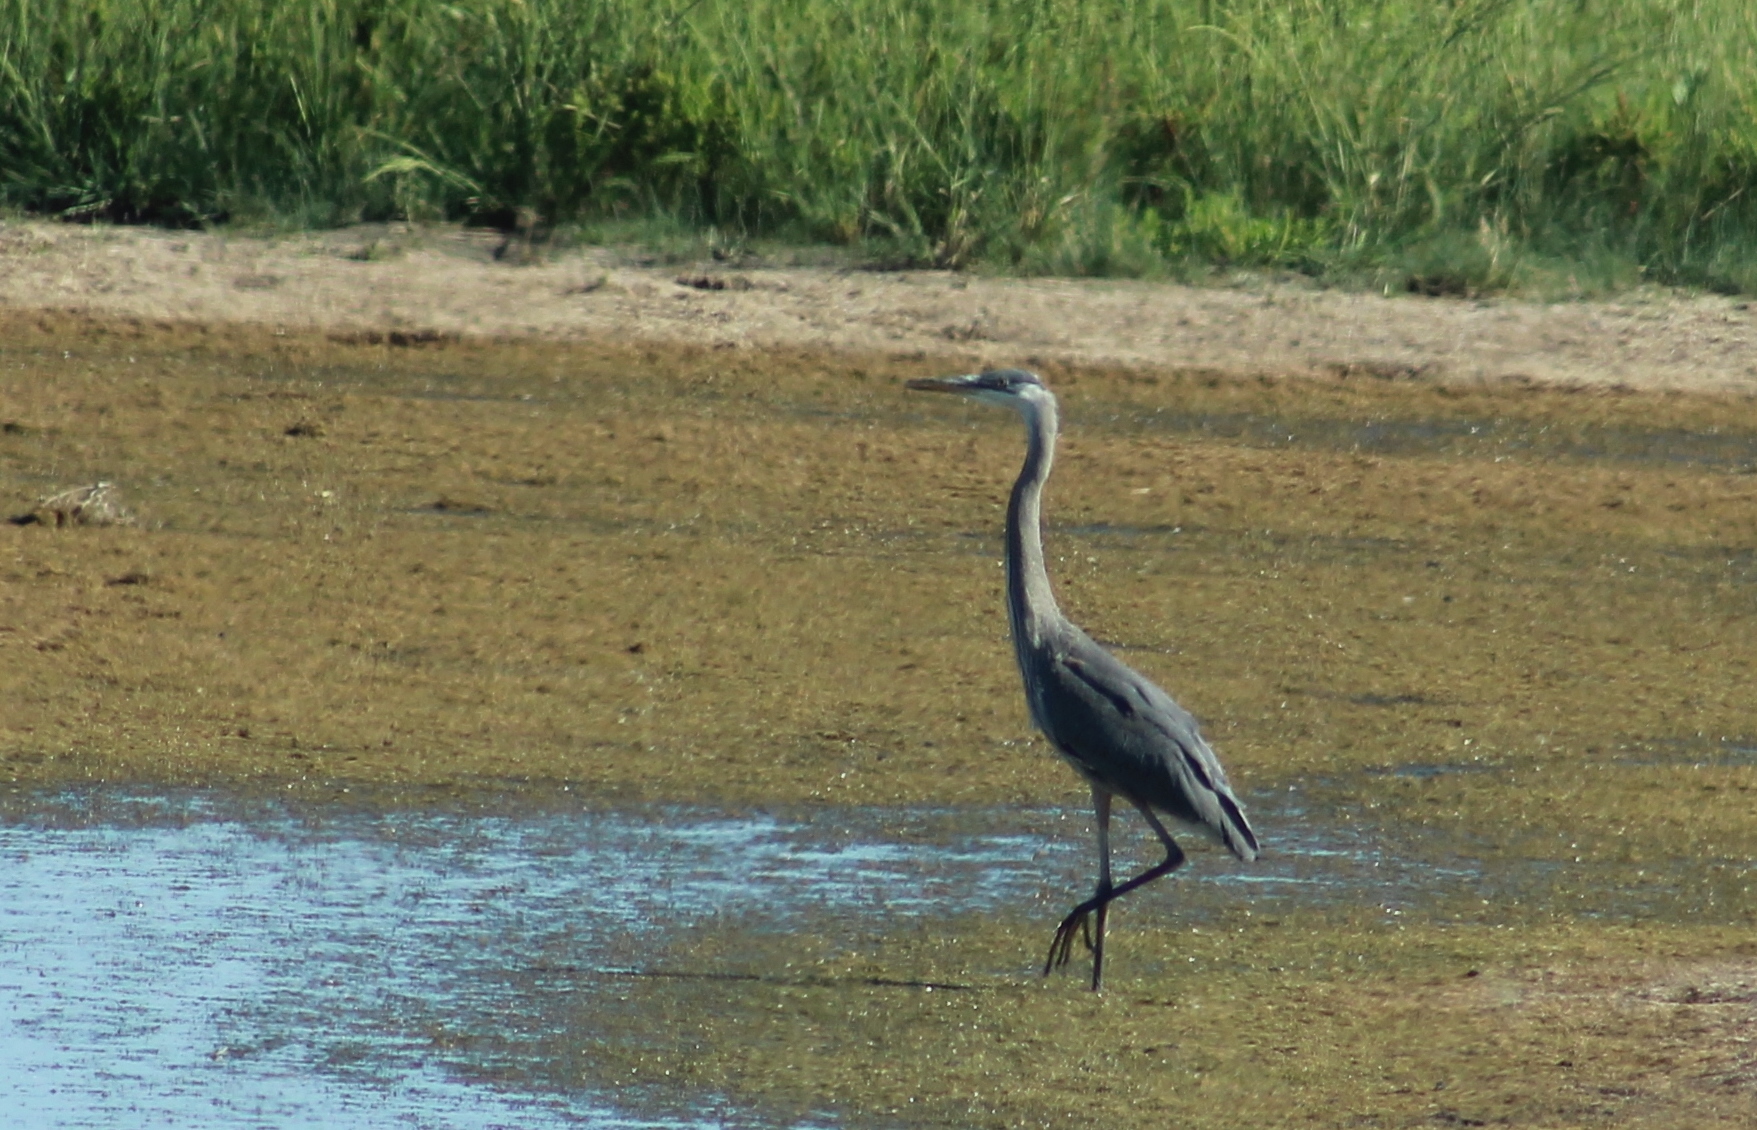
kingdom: Animalia
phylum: Chordata
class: Aves
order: Pelecaniformes
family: Ardeidae
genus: Ardea
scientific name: Ardea herodias
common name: Great blue heron
